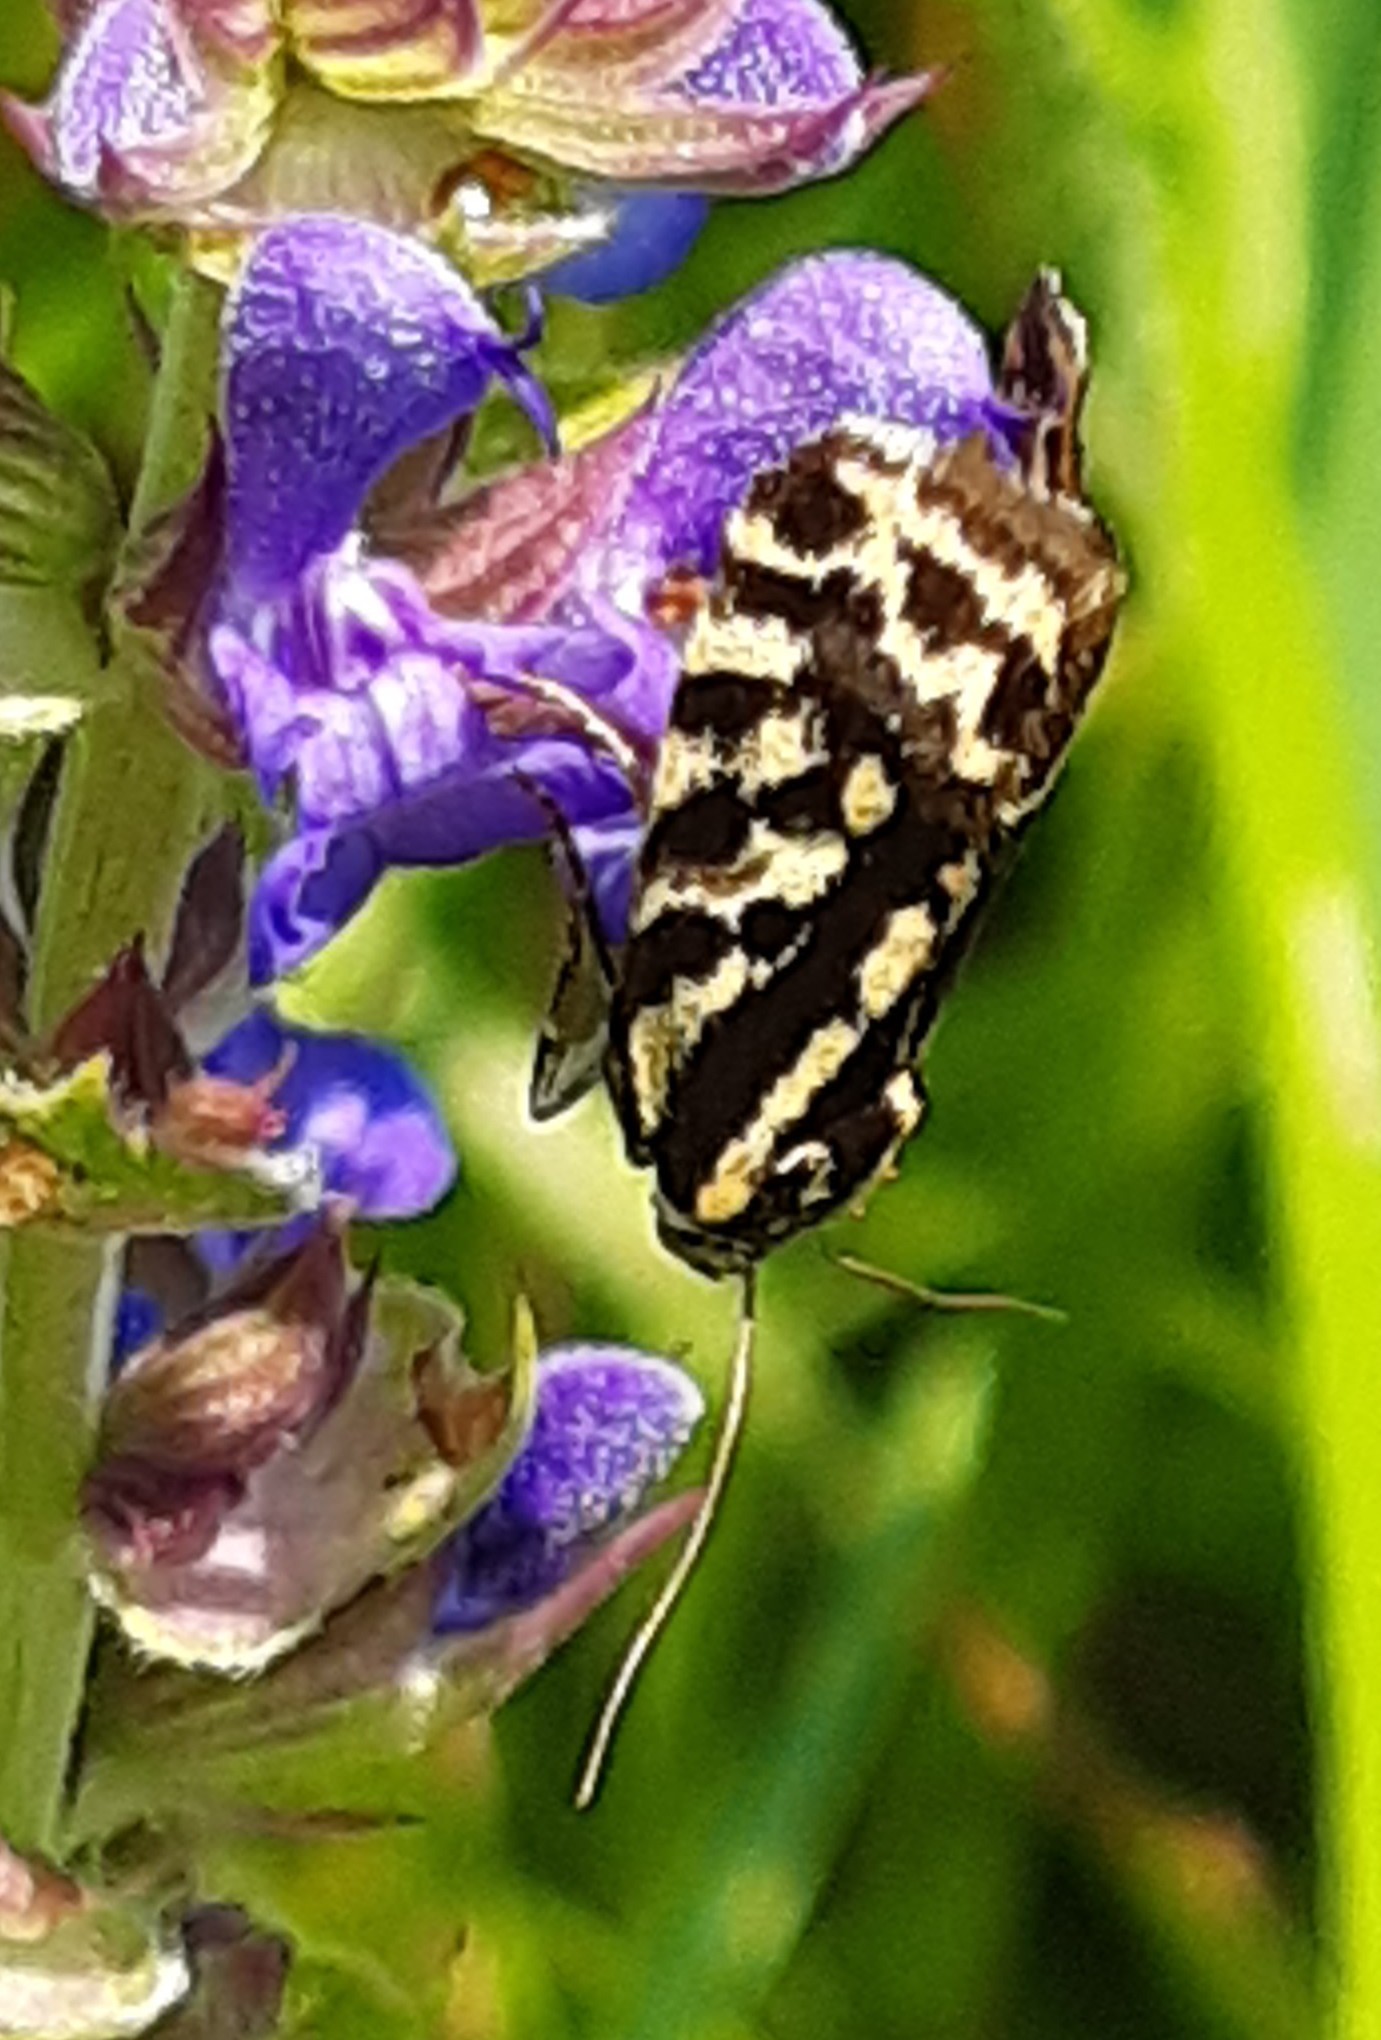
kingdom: Animalia
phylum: Arthropoda
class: Insecta
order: Lepidoptera
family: Noctuidae
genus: Acontia
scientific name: Acontia trabealis
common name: Spotted sulphur
